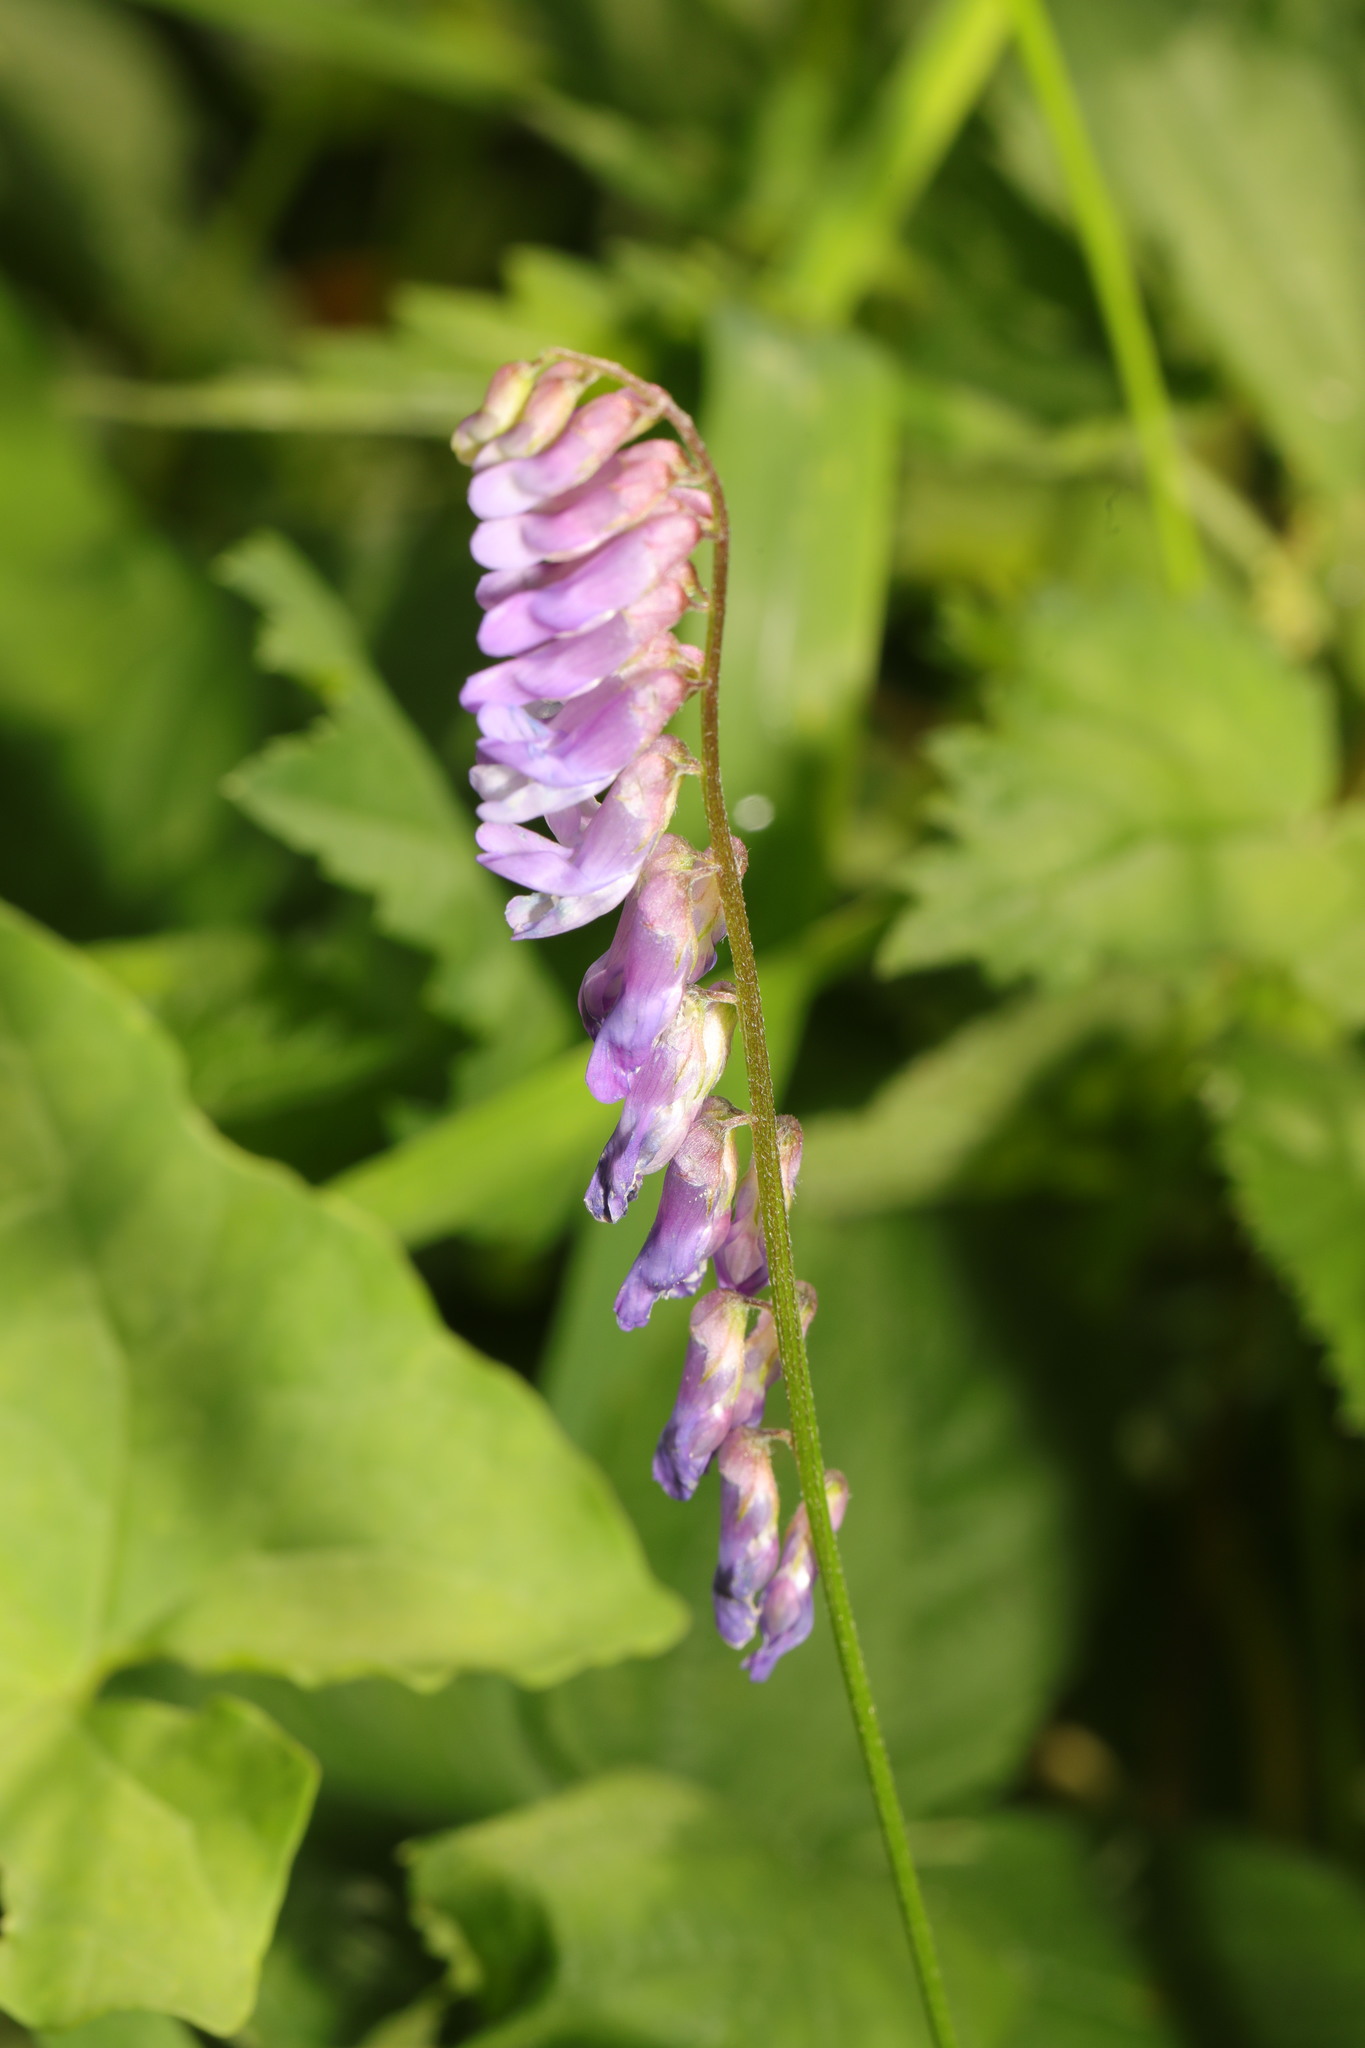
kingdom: Plantae
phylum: Tracheophyta
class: Magnoliopsida
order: Fabales
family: Fabaceae
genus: Vicia
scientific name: Vicia cracca
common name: Bird vetch
